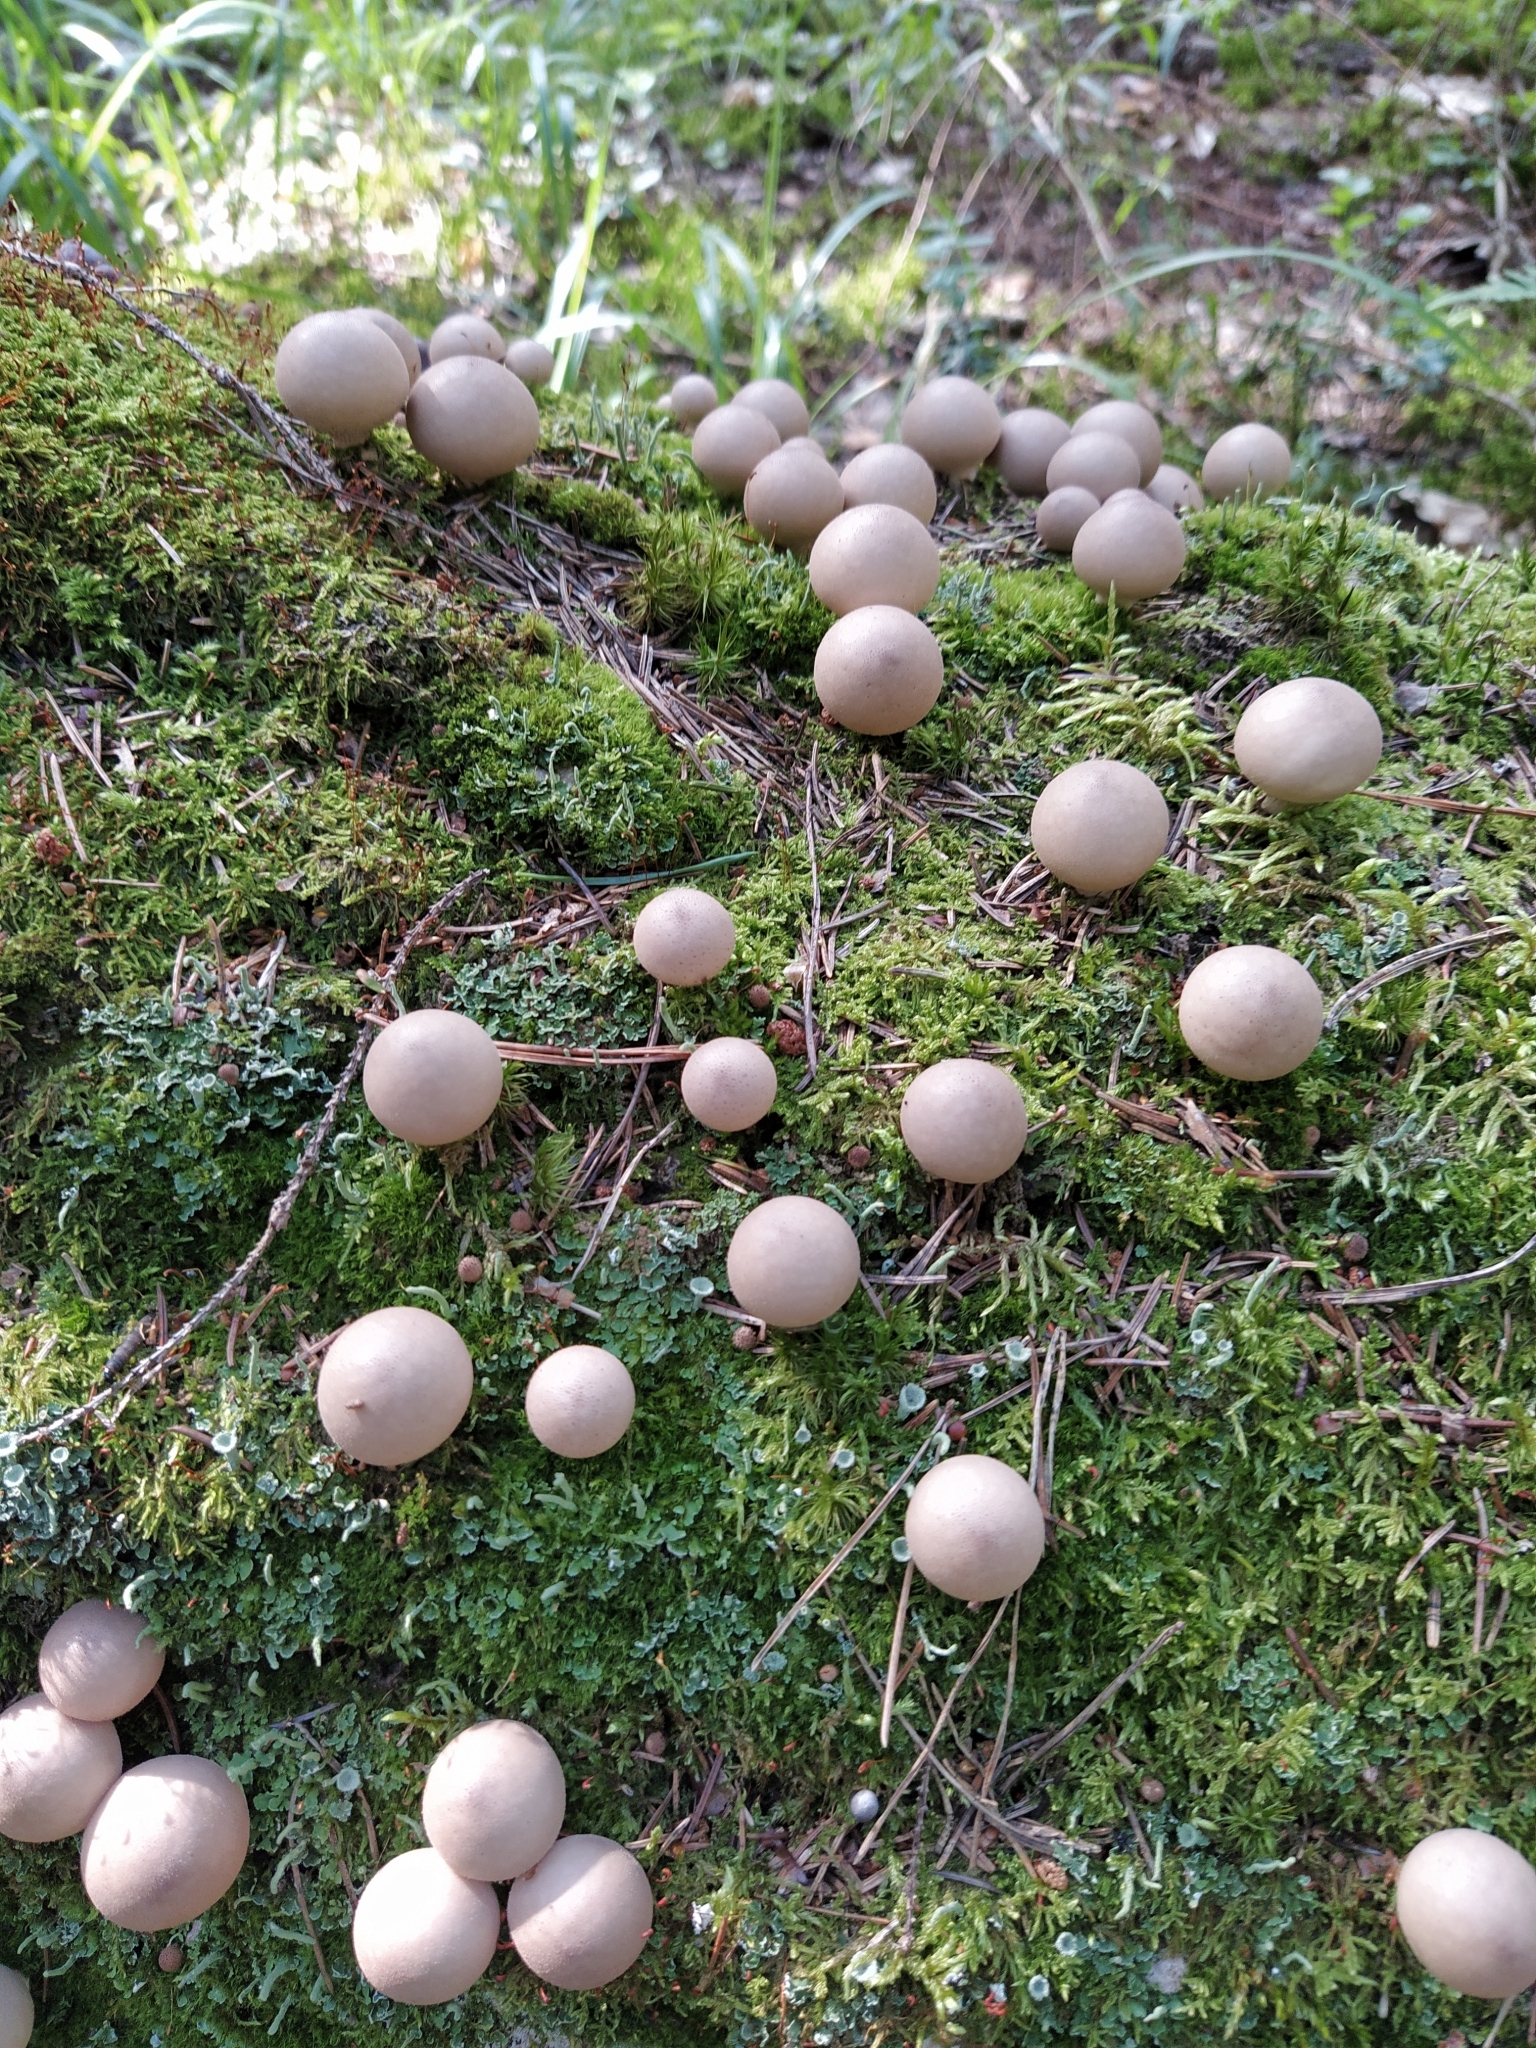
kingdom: Fungi
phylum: Basidiomycota
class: Agaricomycetes
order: Agaricales
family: Lycoperdaceae
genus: Apioperdon
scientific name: Apioperdon pyriforme
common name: Pear-shaped puffball
